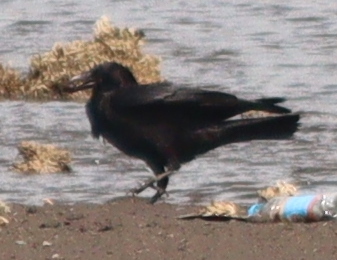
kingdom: Animalia
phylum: Chordata
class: Aves
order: Passeriformes
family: Corvidae
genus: Corvus
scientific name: Corvus corone
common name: Carrion crow
